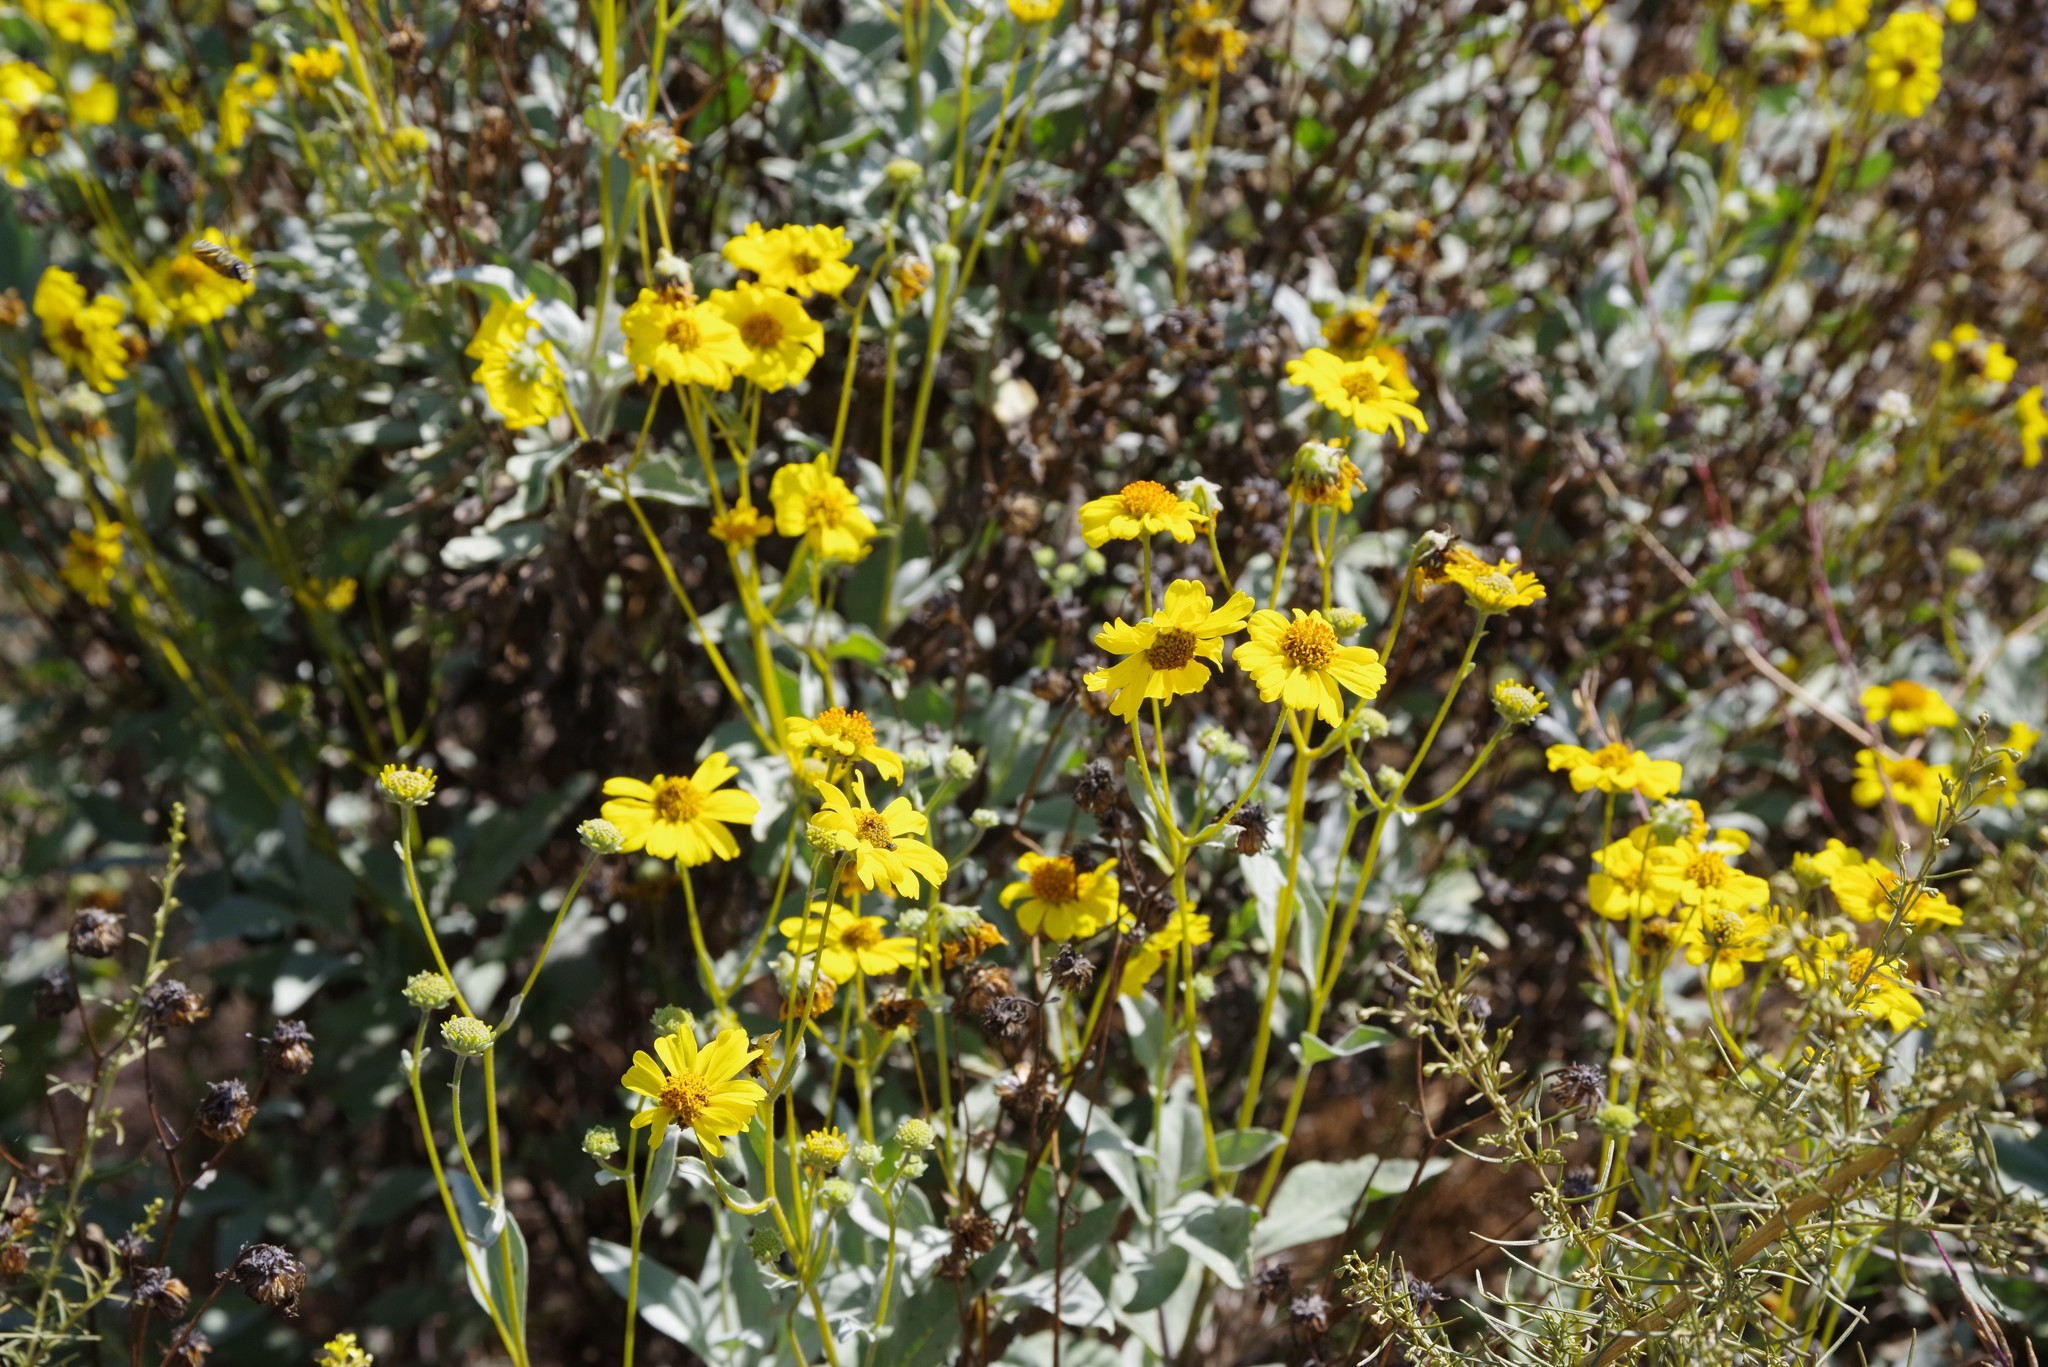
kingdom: Plantae
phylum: Tracheophyta
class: Magnoliopsida
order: Asterales
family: Asteraceae
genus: Encelia
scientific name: Encelia farinosa
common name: Brittlebush
